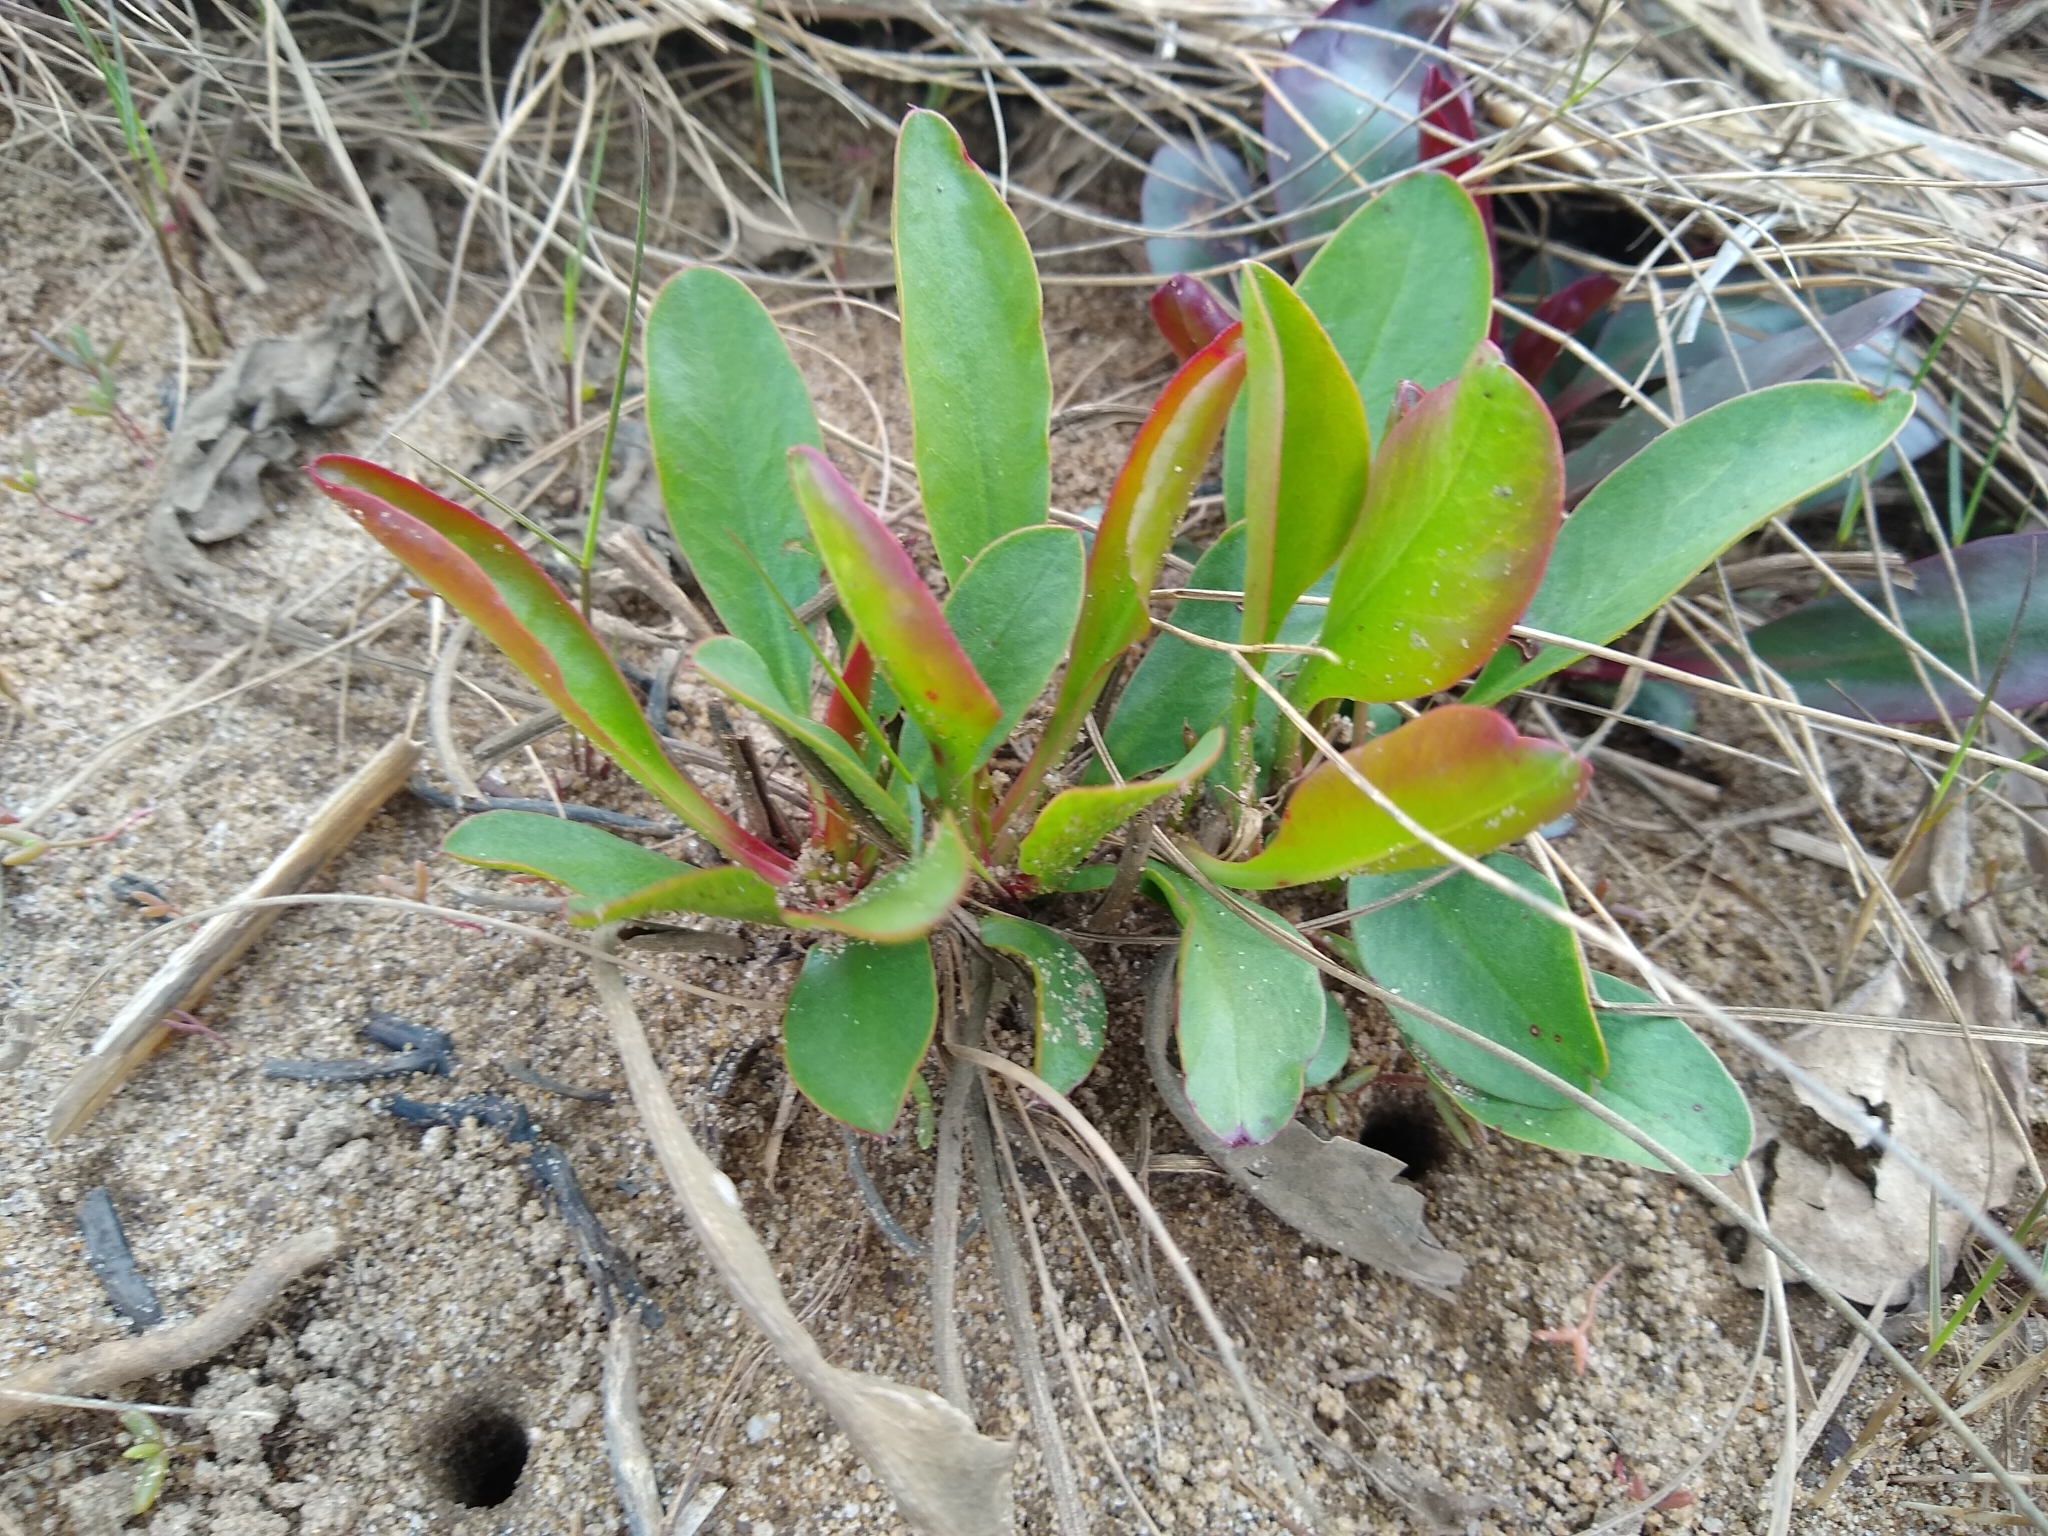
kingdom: Plantae
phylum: Tracheophyta
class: Magnoliopsida
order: Caryophyllales
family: Plumbaginaceae
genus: Limonium
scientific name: Limonium carolinianum
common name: Carolina sea lavender
